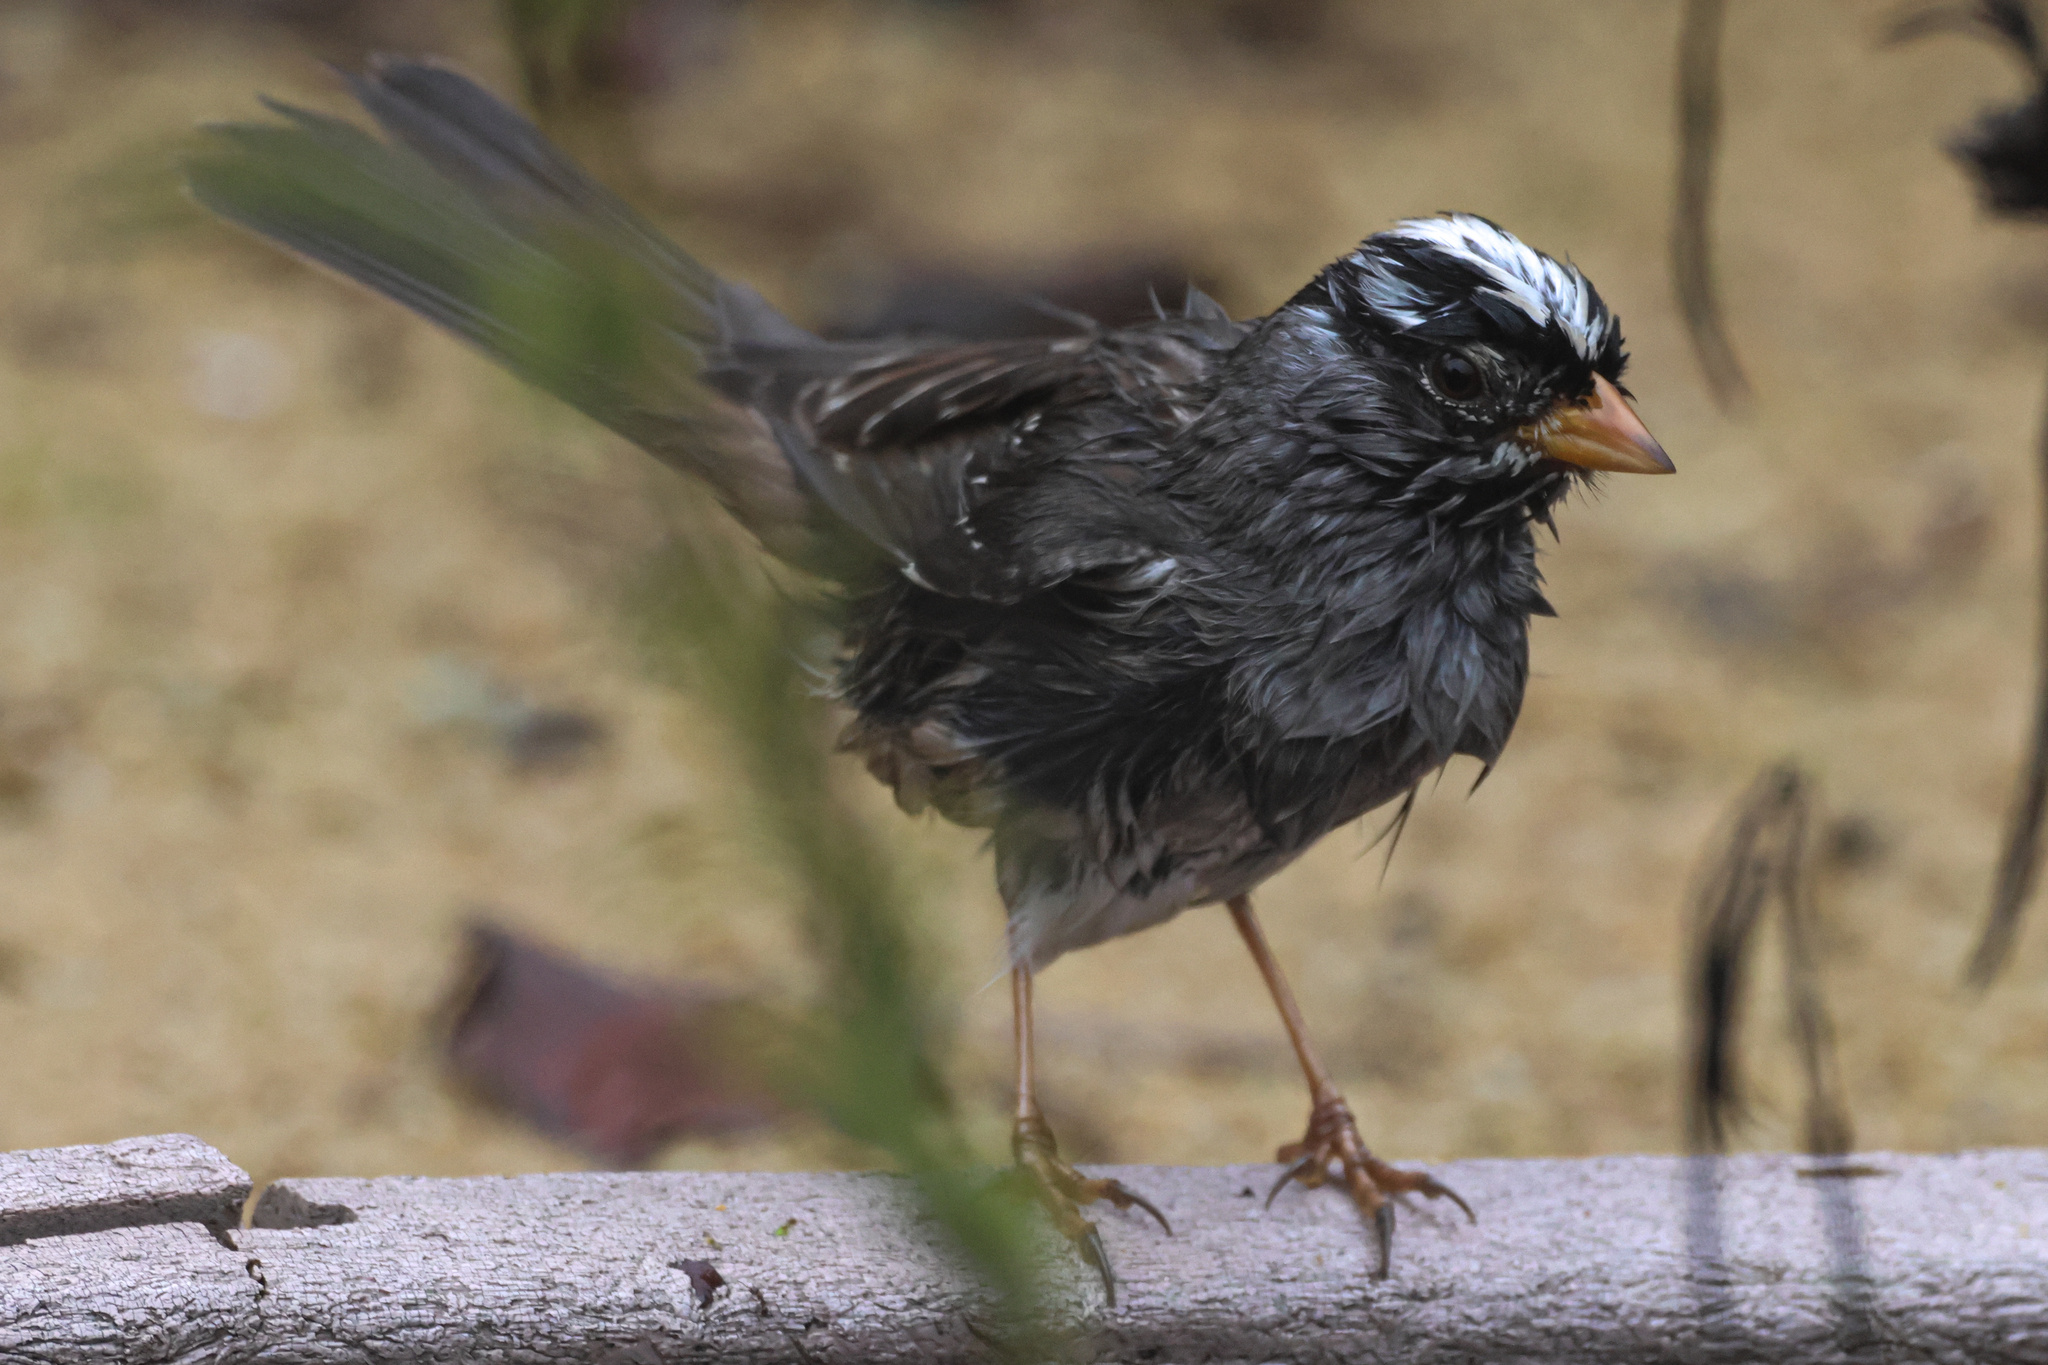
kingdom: Animalia
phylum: Chordata
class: Aves
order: Passeriformes
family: Passerellidae
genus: Zonotrichia
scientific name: Zonotrichia leucophrys
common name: White-crowned sparrow
